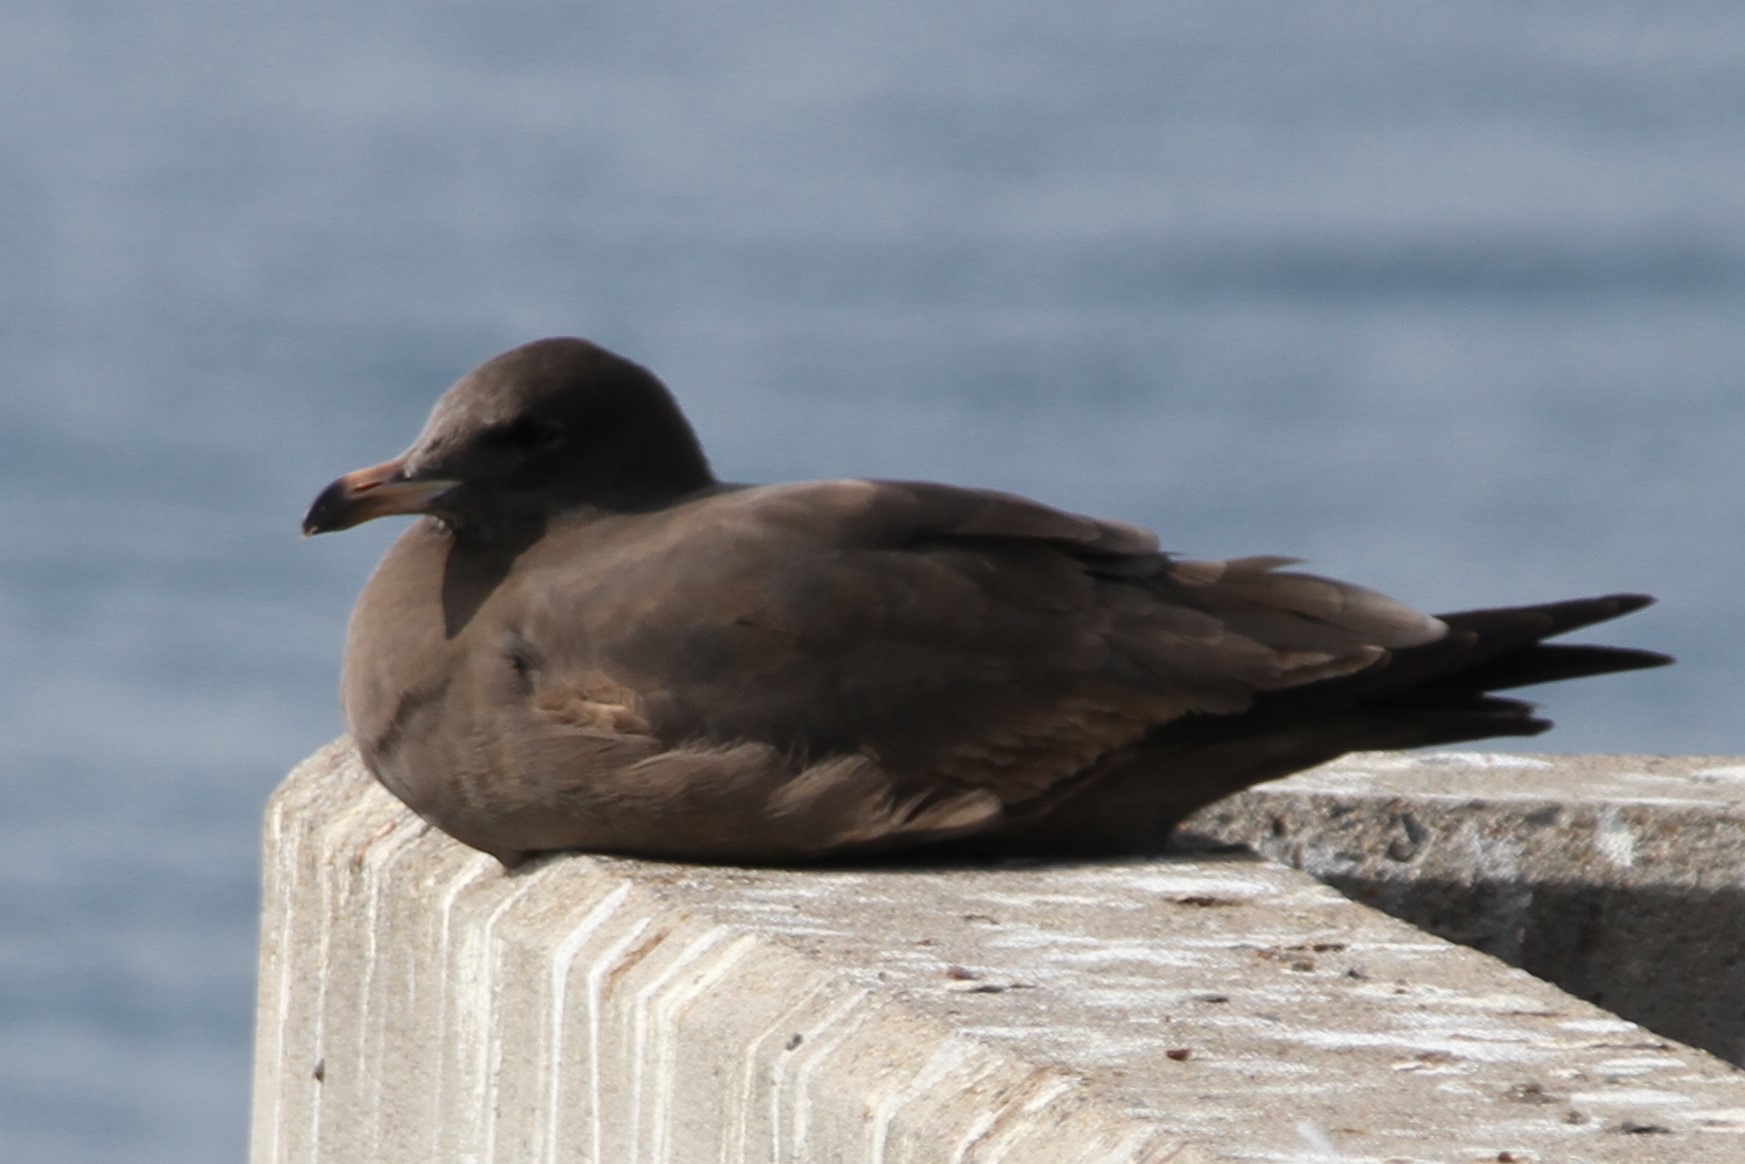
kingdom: Animalia
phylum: Chordata
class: Aves
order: Charadriiformes
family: Laridae
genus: Larus
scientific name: Larus heermanni
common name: Heermann's gull
